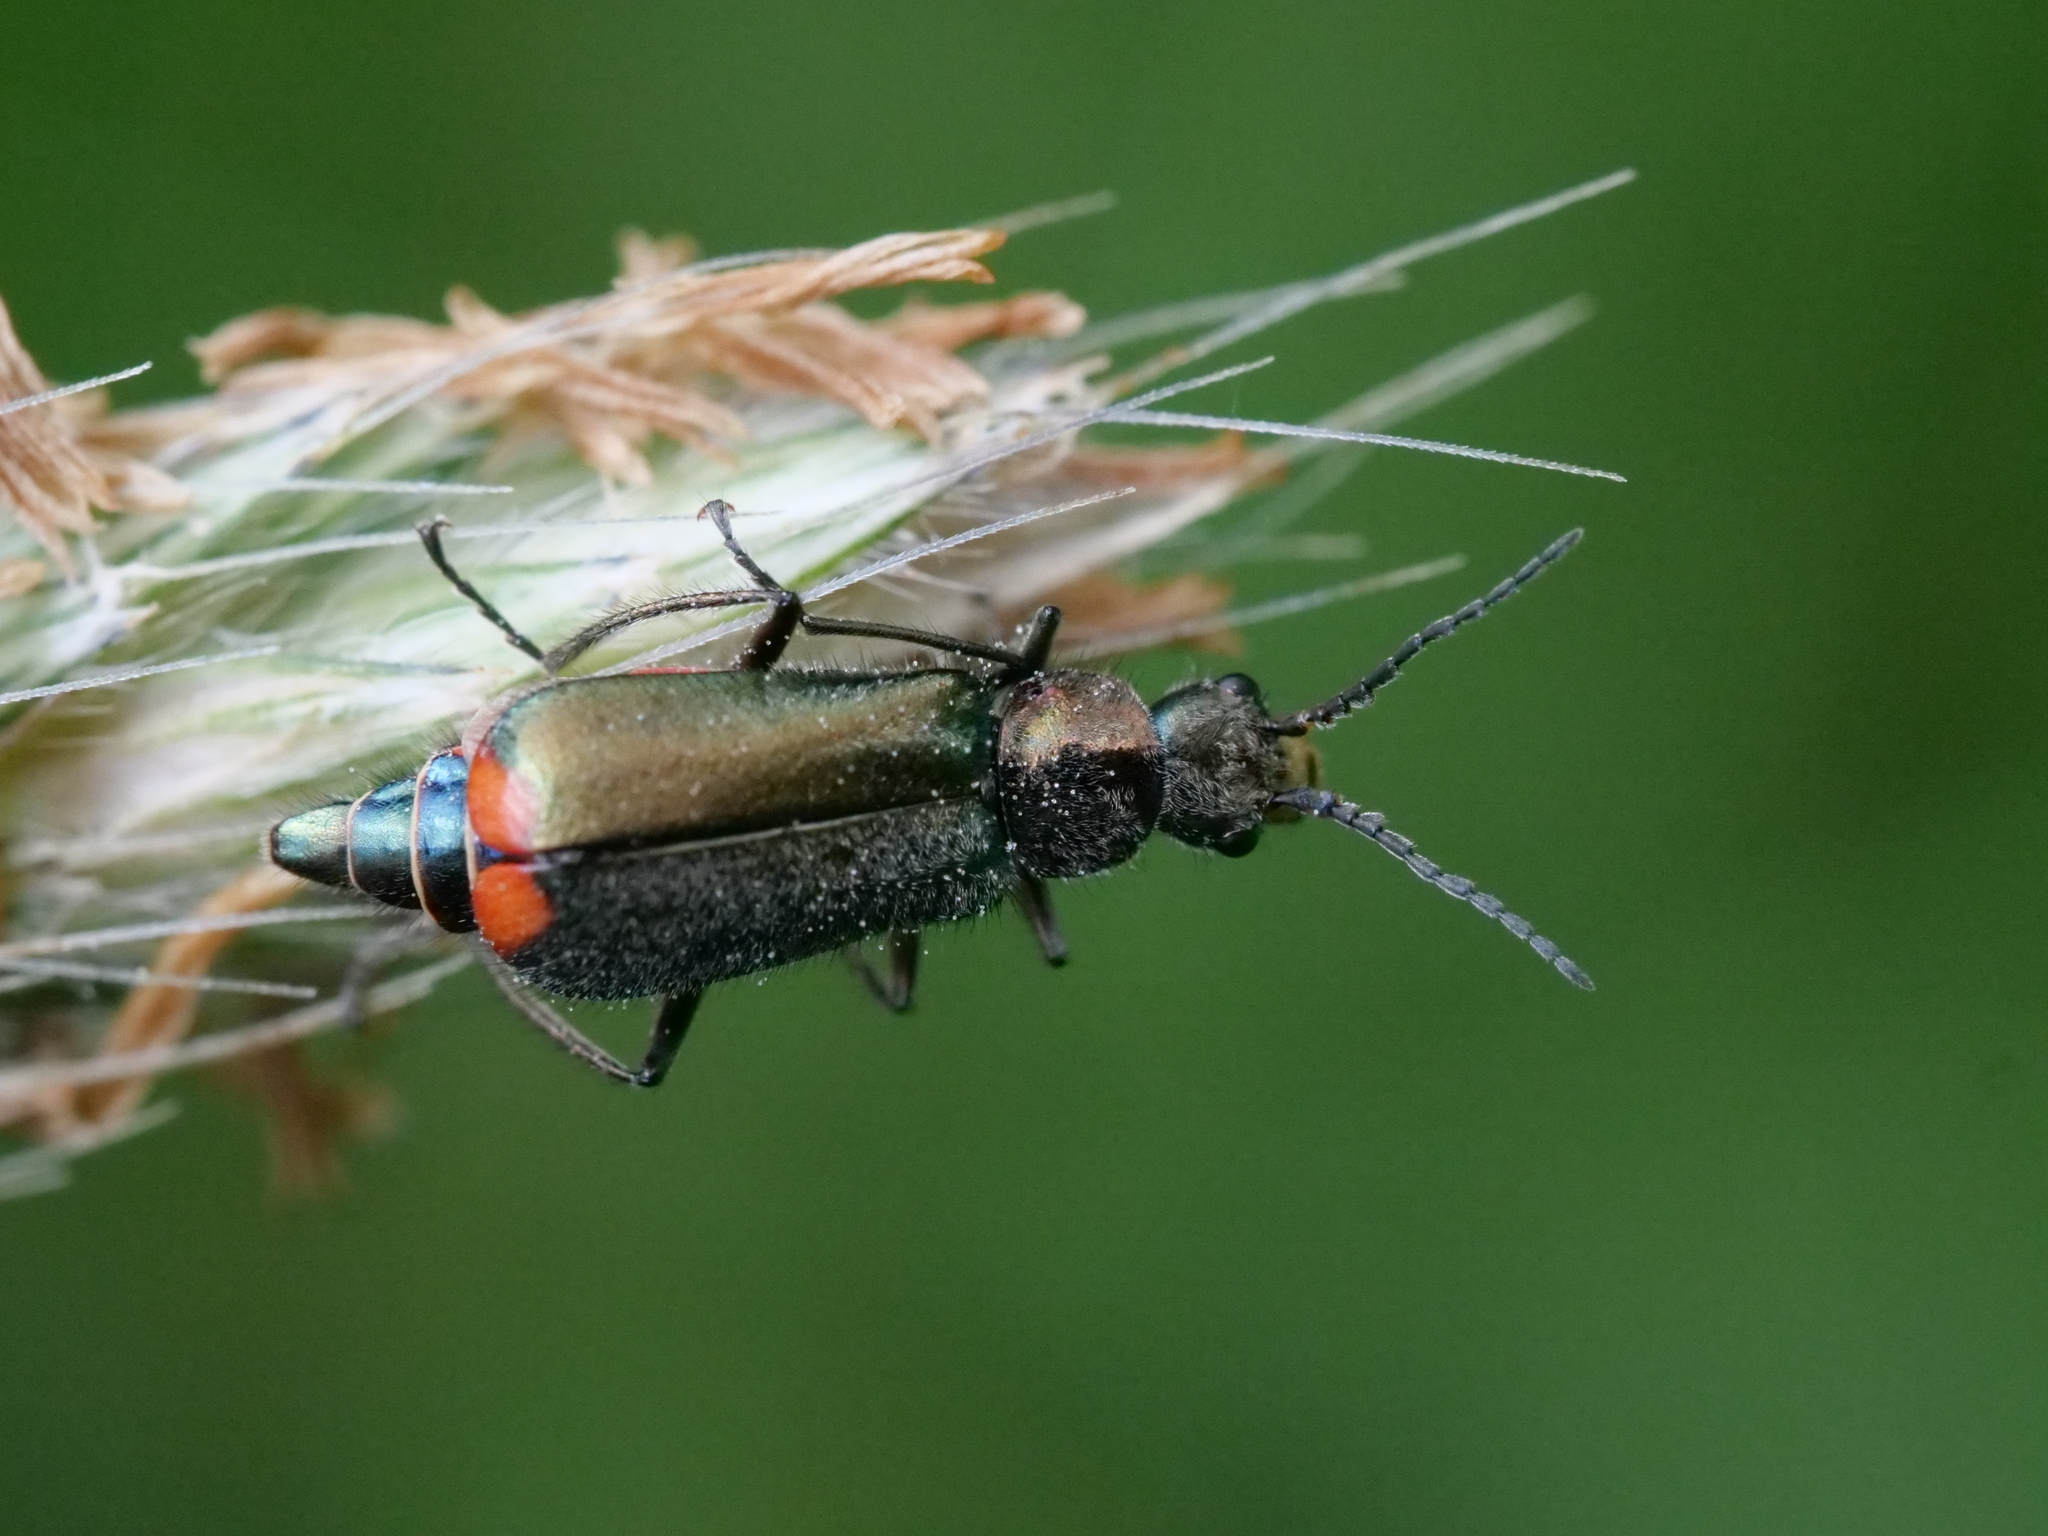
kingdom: Animalia
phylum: Arthropoda
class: Insecta
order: Coleoptera
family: Melyridae
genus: Malachius
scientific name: Malachius bipustulatus
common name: Malachite beetle
